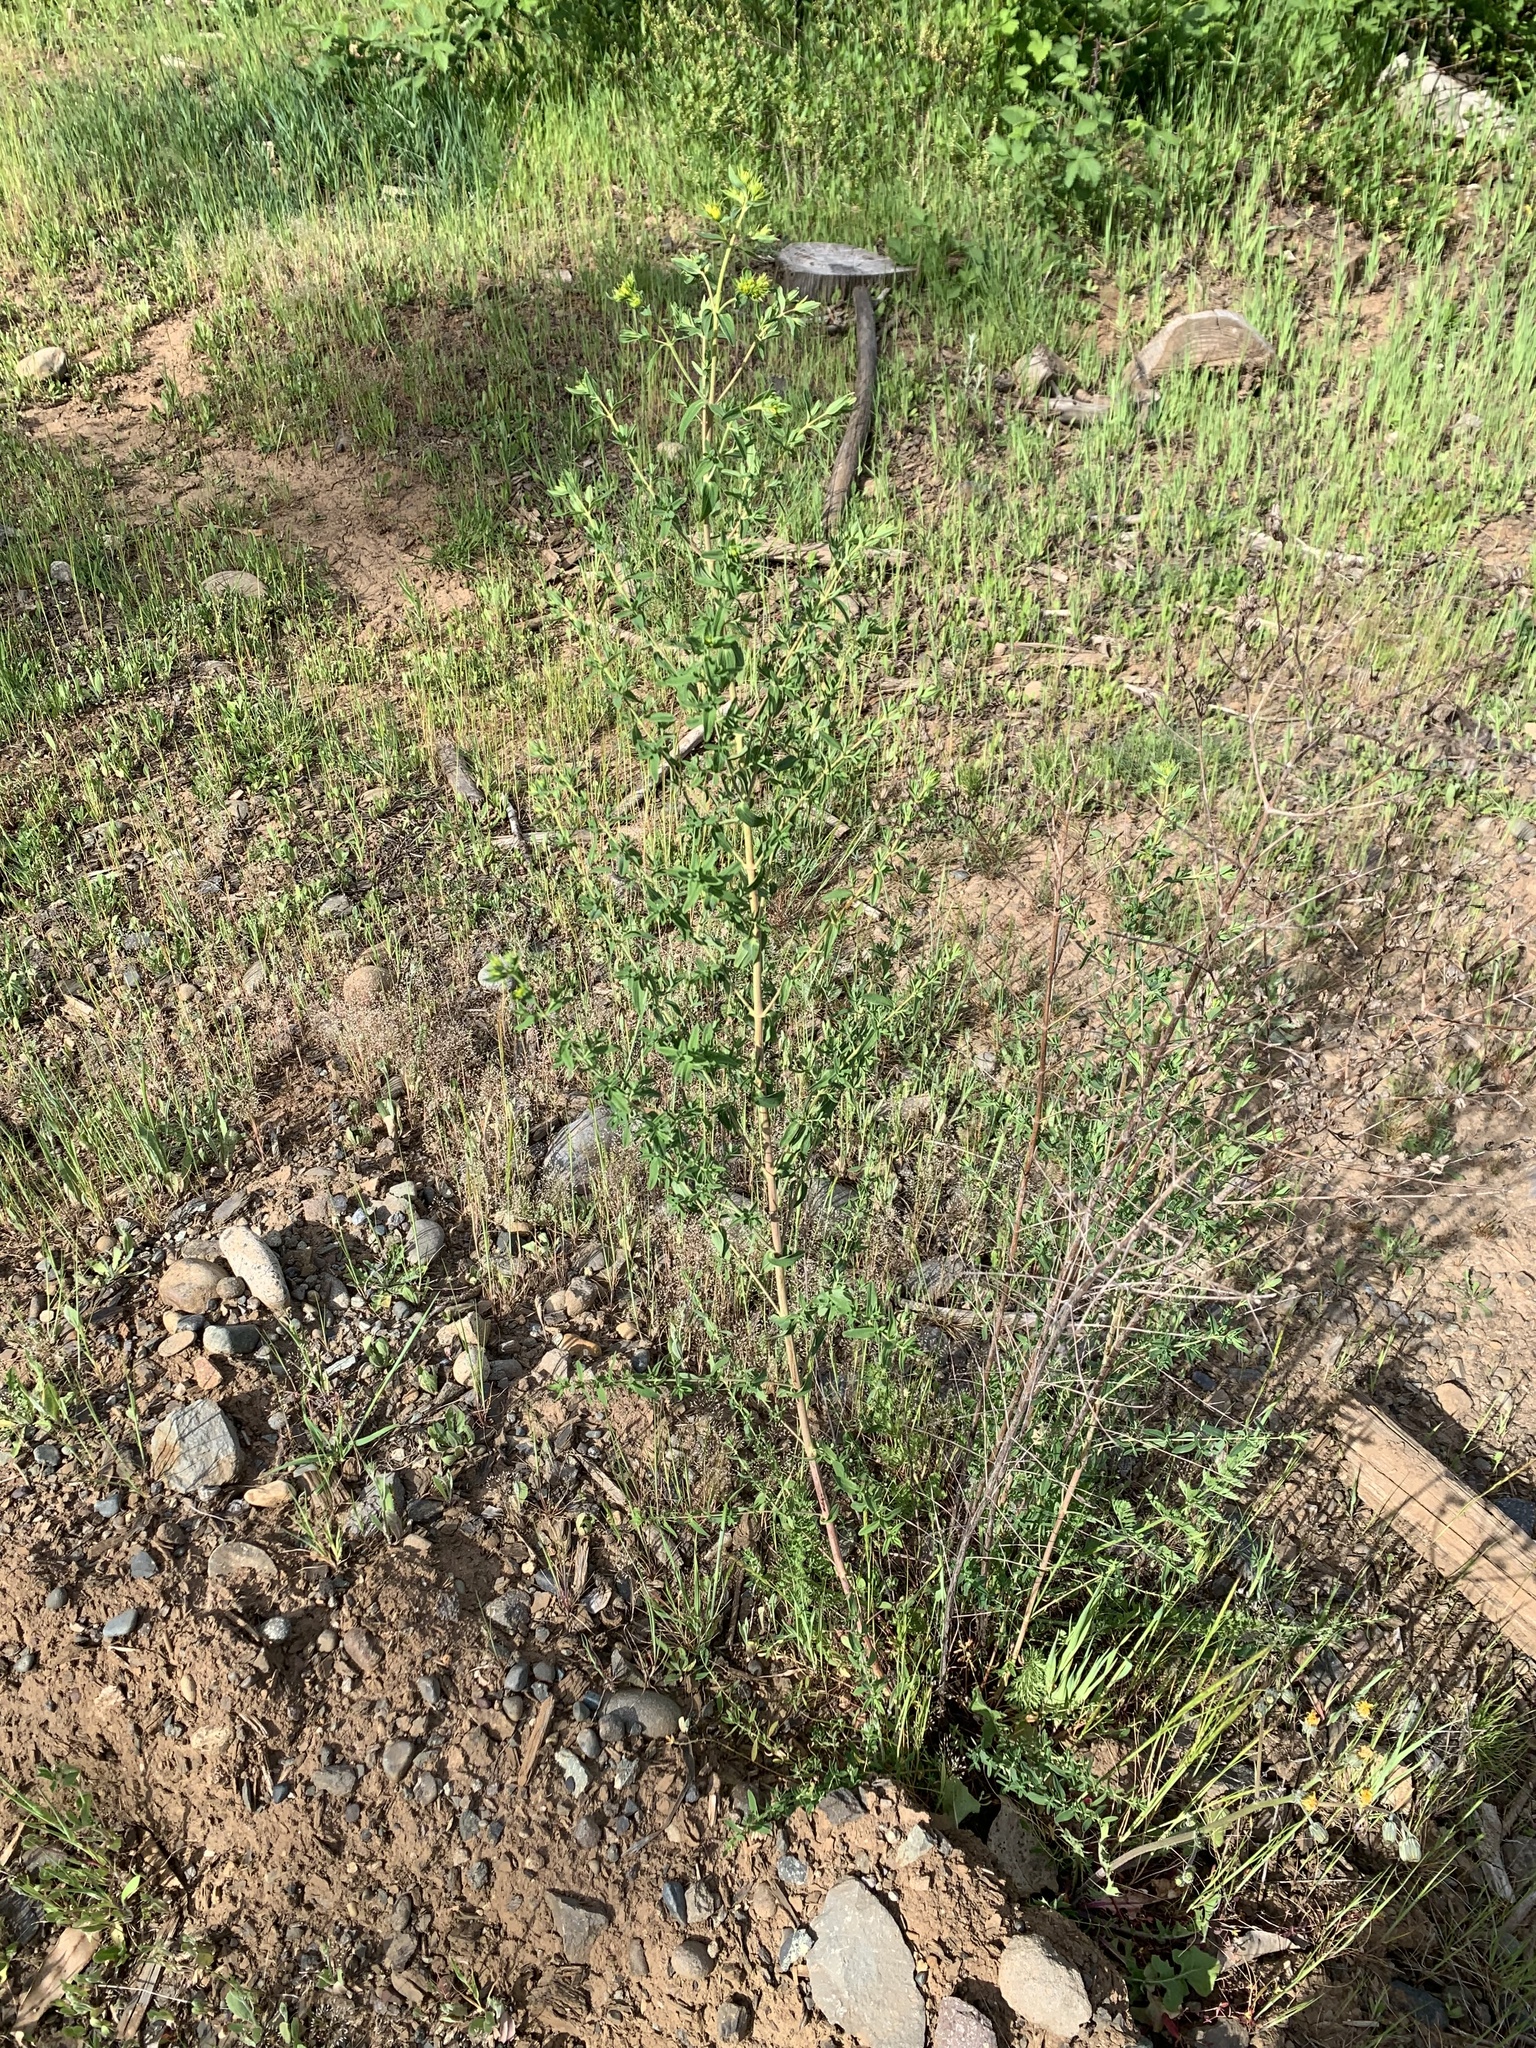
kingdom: Plantae
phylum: Tracheophyta
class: Magnoliopsida
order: Malpighiales
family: Hypericaceae
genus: Hypericum
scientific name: Hypericum perforatum
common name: Common st. johnswort
